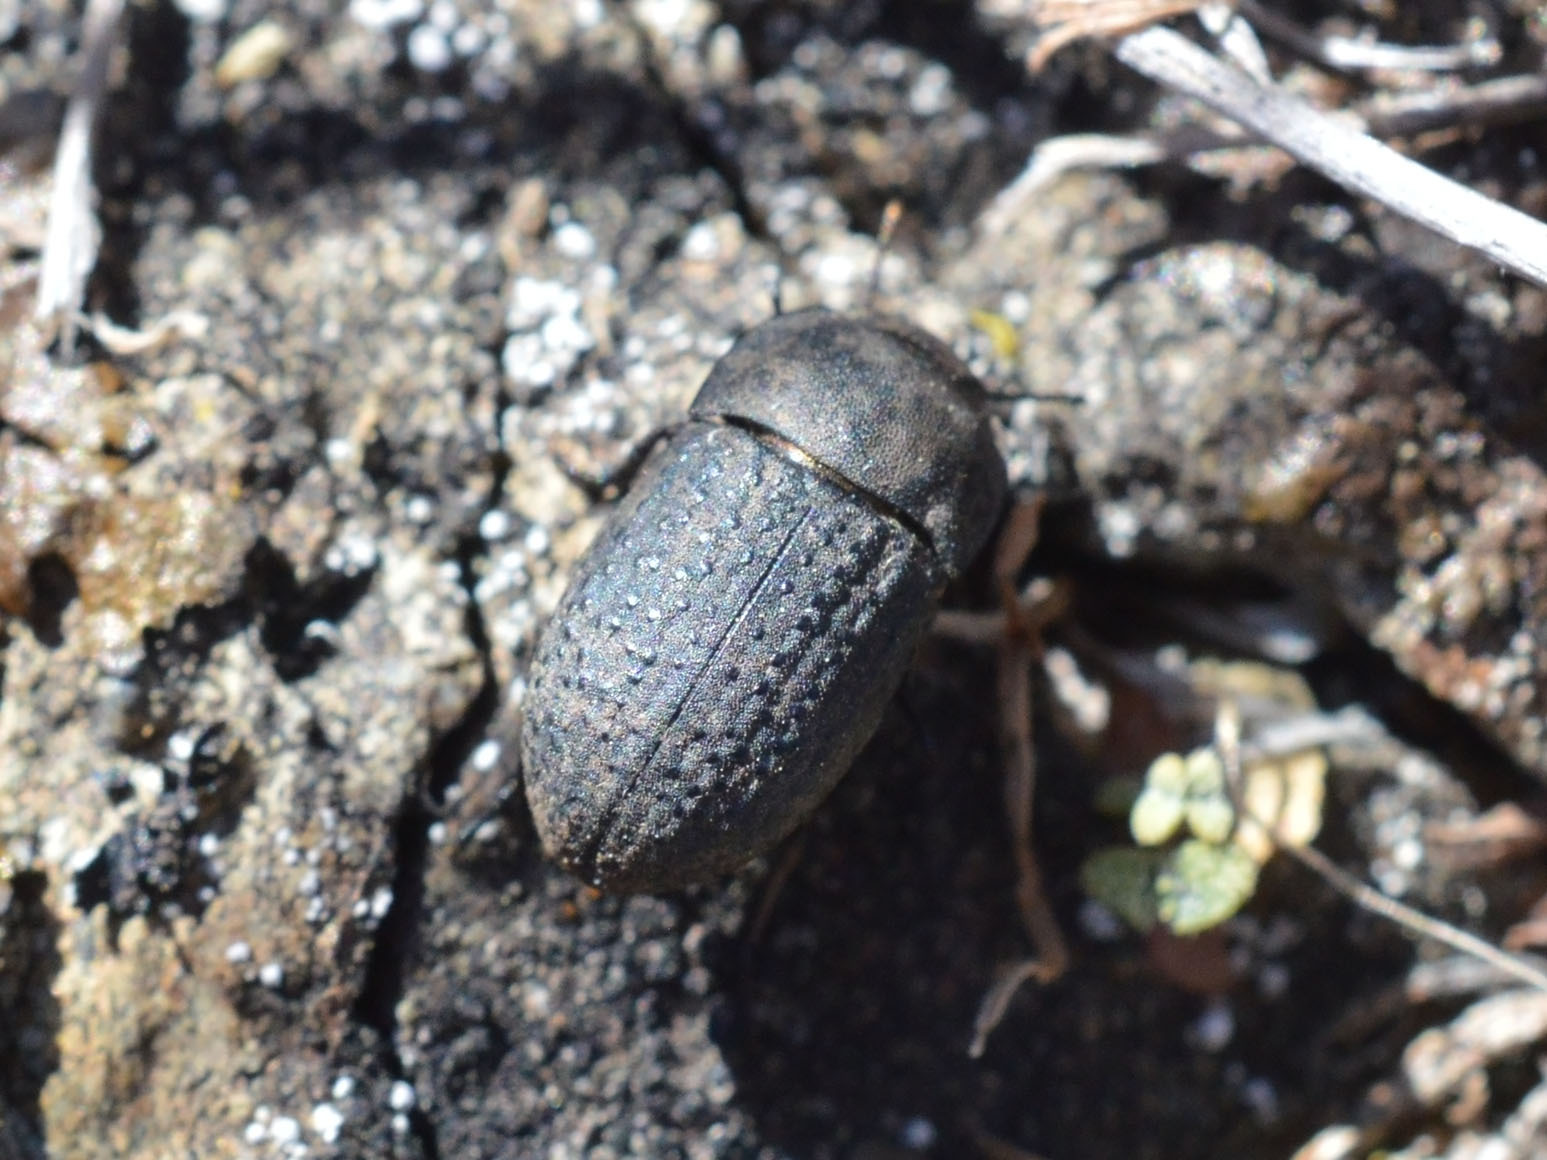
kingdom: Animalia
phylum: Arthropoda
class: Insecta
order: Coleoptera
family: Tenebrionidae
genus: Opatrum
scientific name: Opatrum sabulosum
